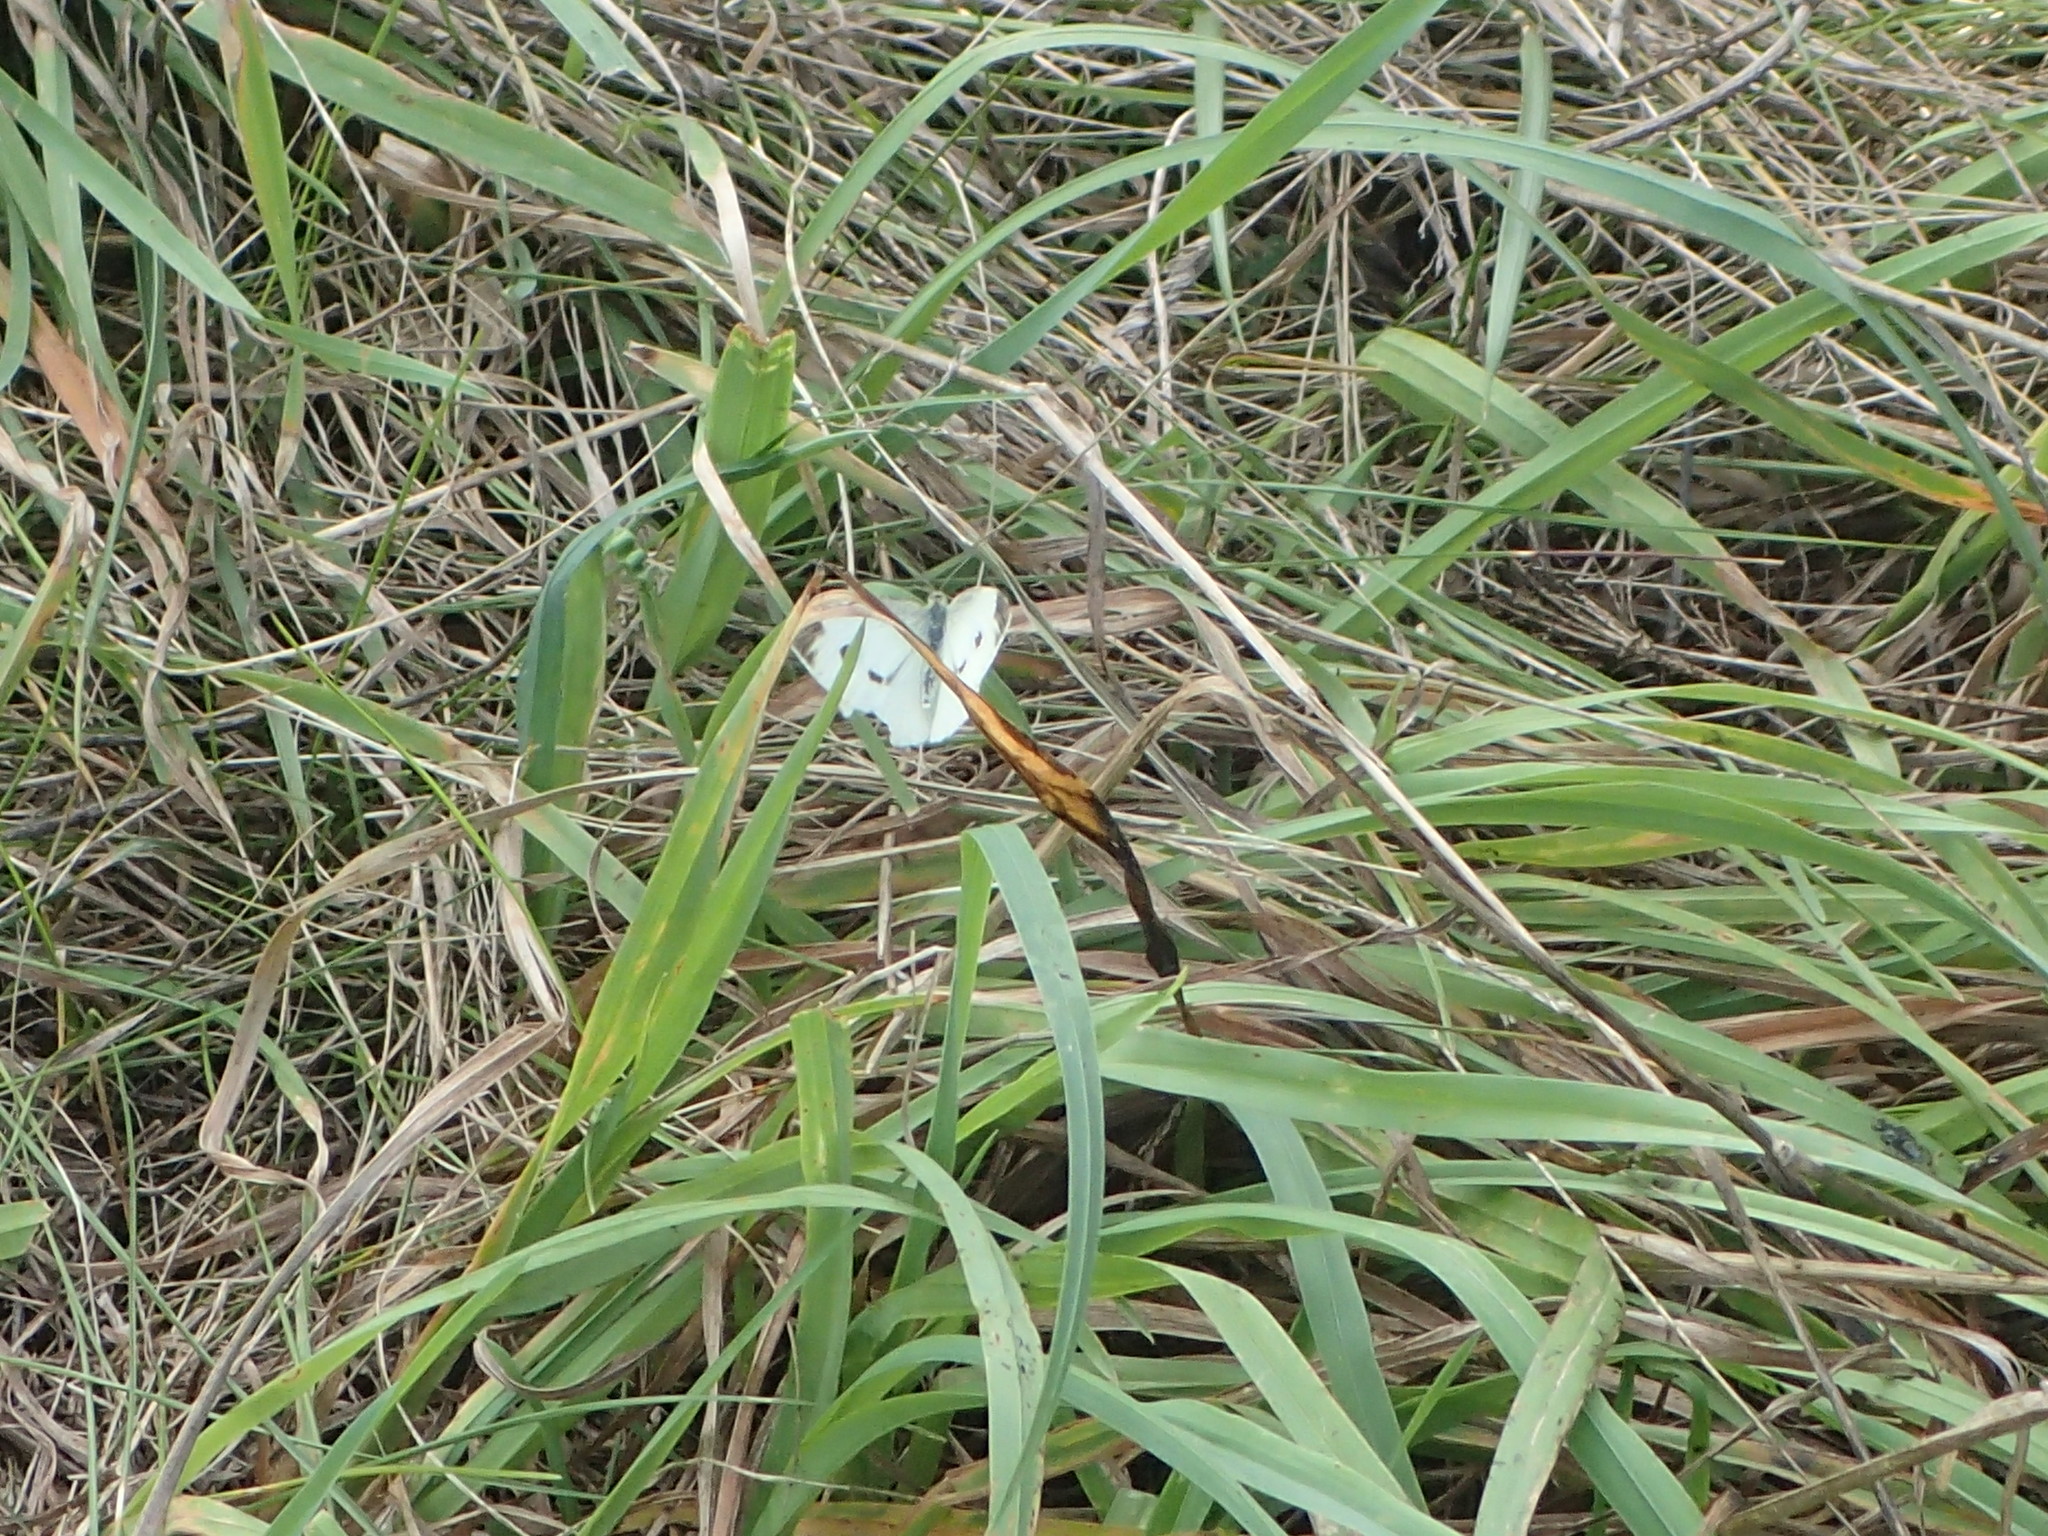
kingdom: Animalia
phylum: Arthropoda
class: Insecta
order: Lepidoptera
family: Pieridae
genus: Pieris
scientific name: Pieris rapae
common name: Small white
